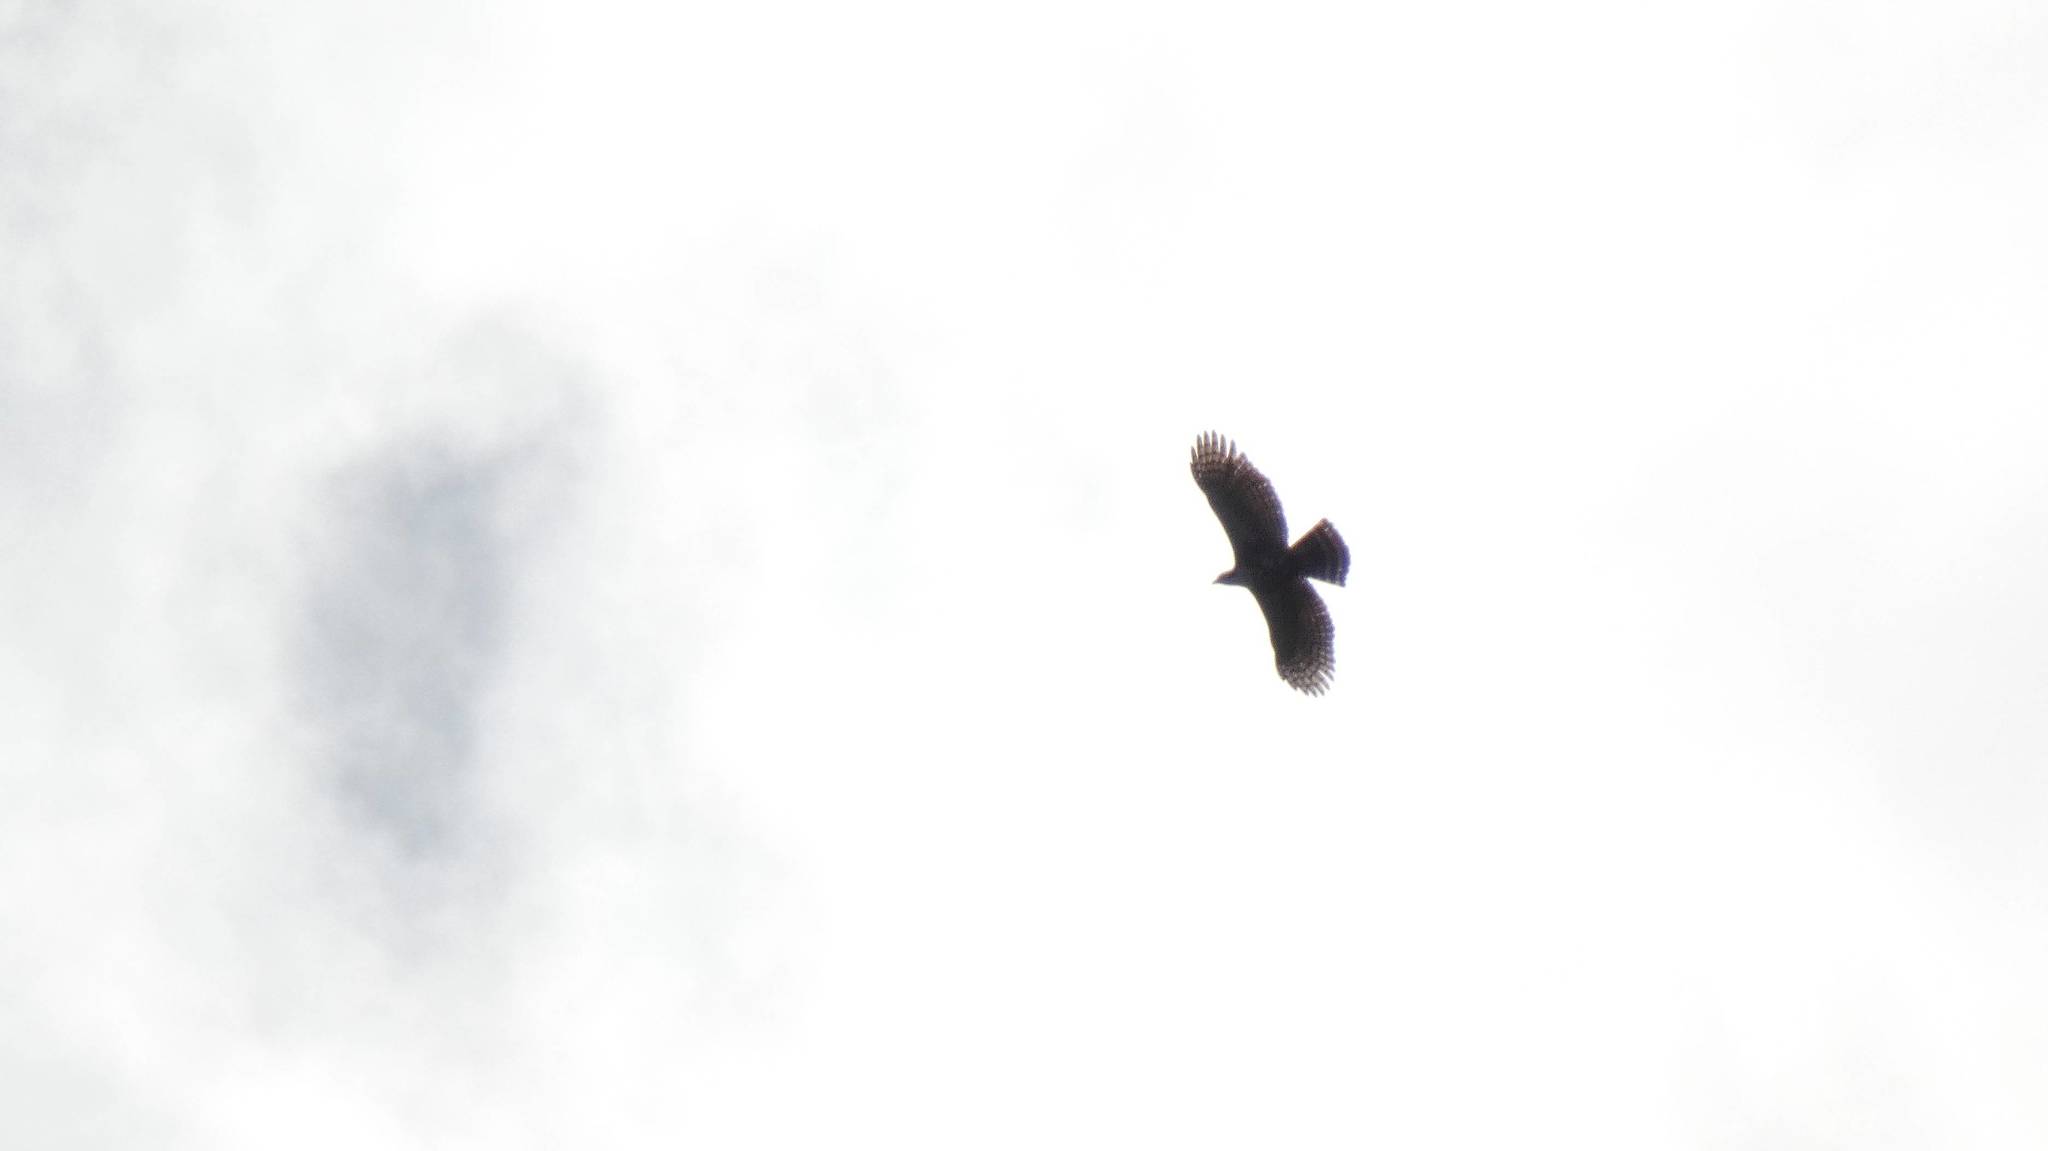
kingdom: Animalia
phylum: Chordata
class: Aves
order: Accipitriformes
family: Accipitridae
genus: Spizaetus
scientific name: Spizaetus ornatus
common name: Ornate hawk-eagle
